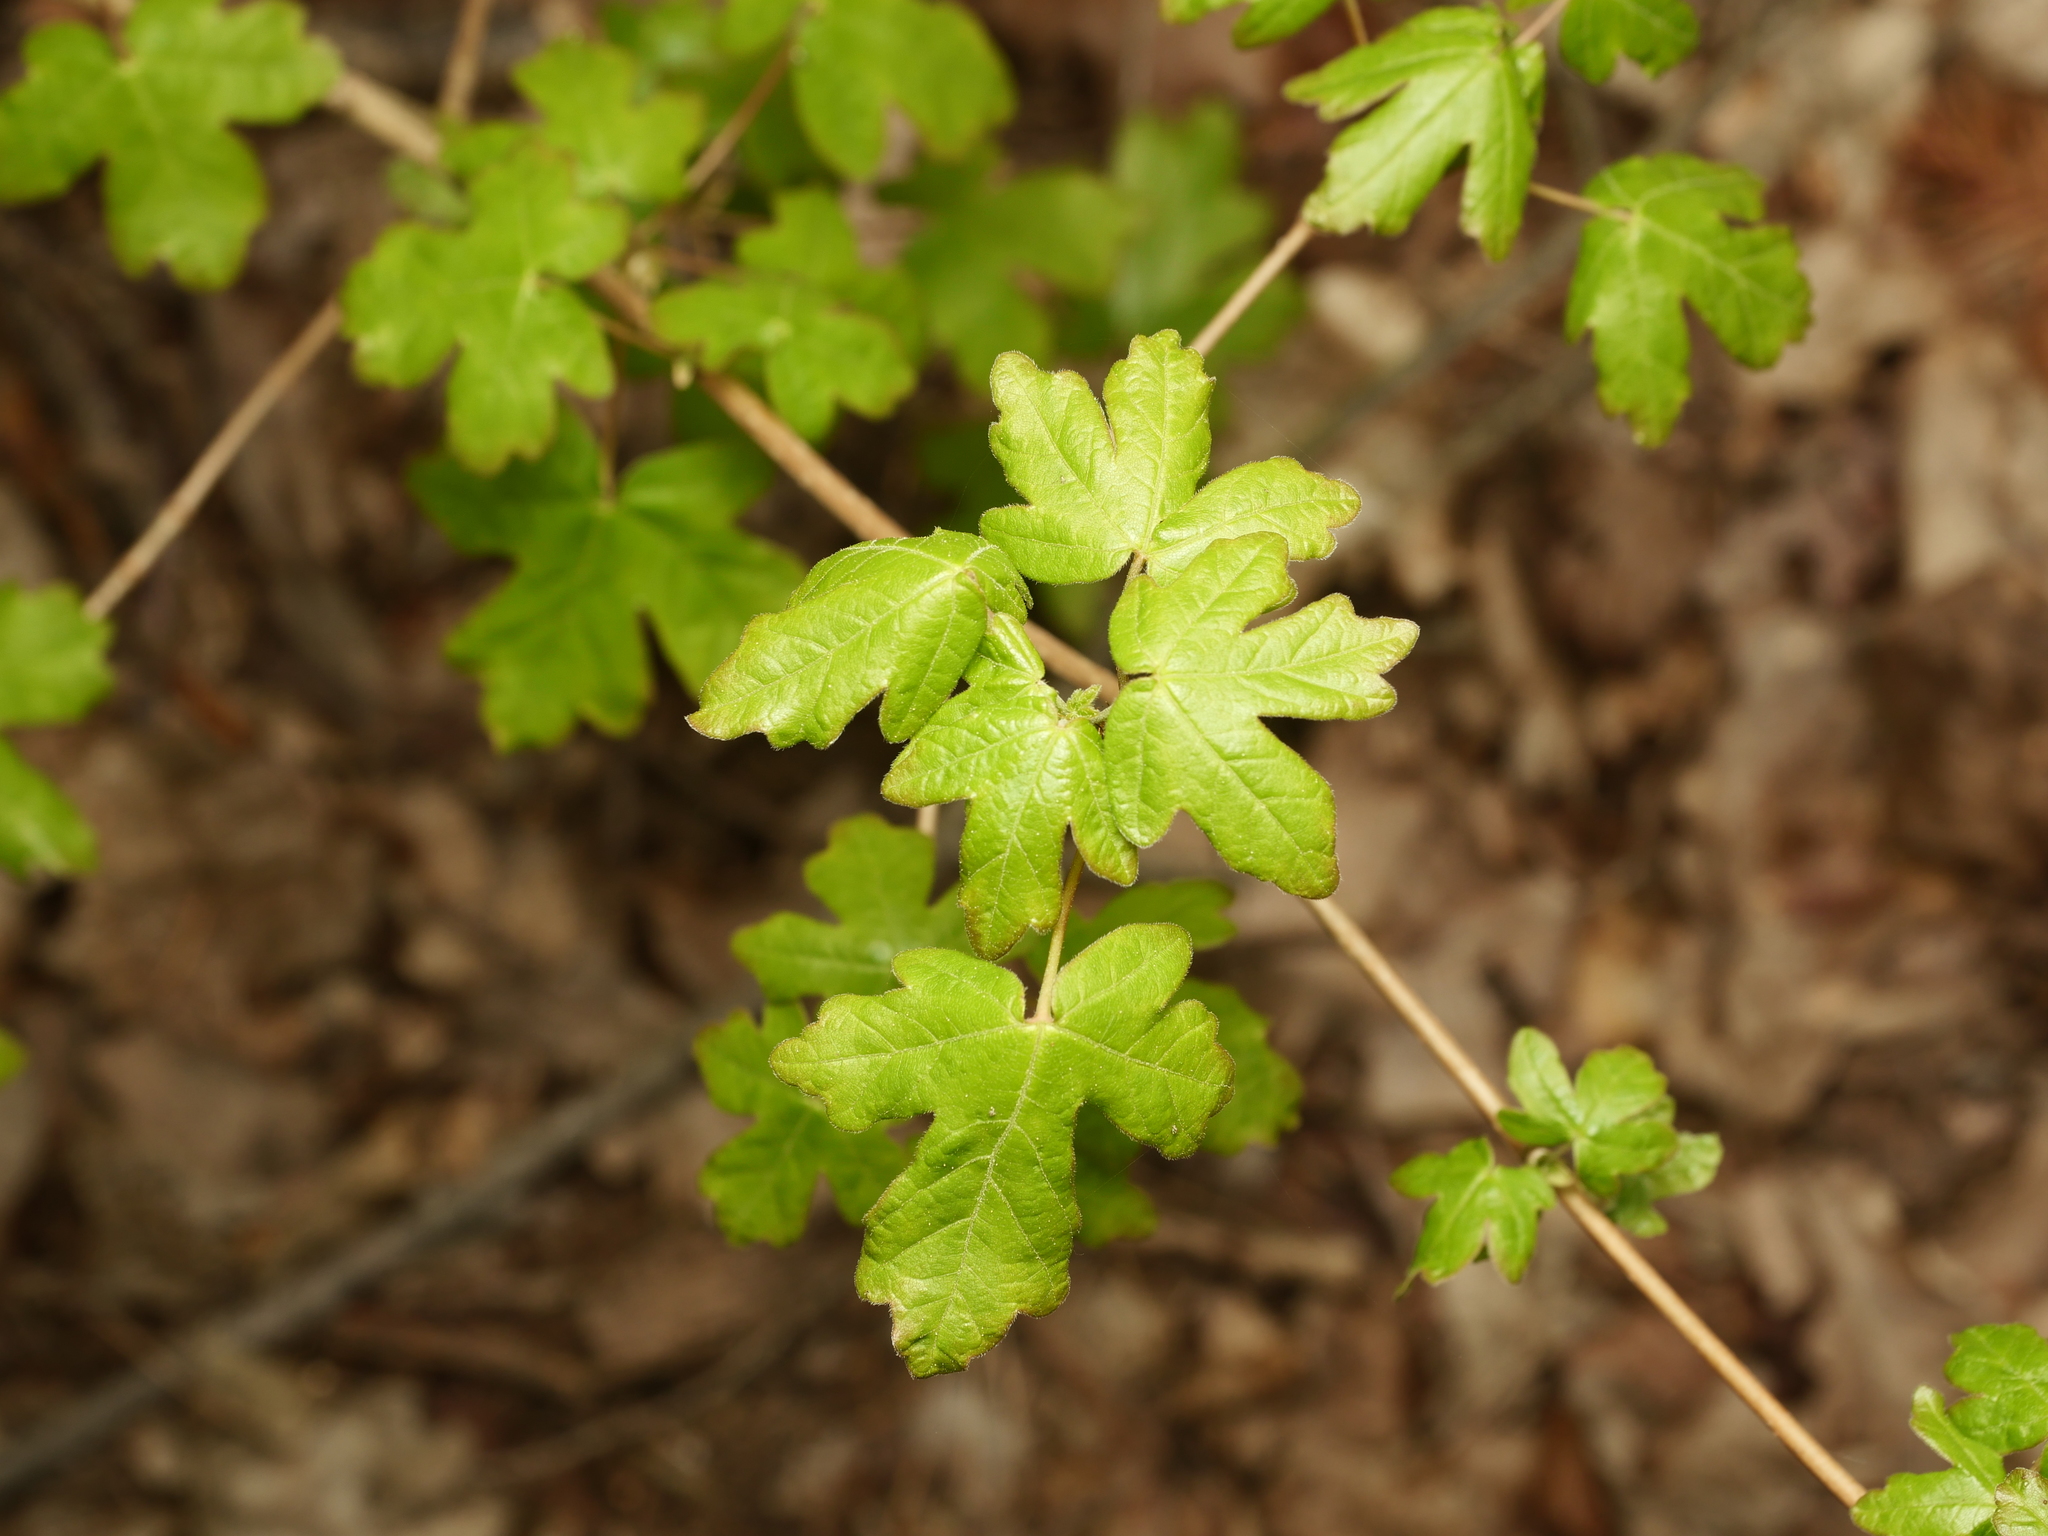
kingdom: Plantae
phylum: Tracheophyta
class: Magnoliopsida
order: Sapindales
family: Sapindaceae
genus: Acer
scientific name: Acer campestre
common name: Field maple
